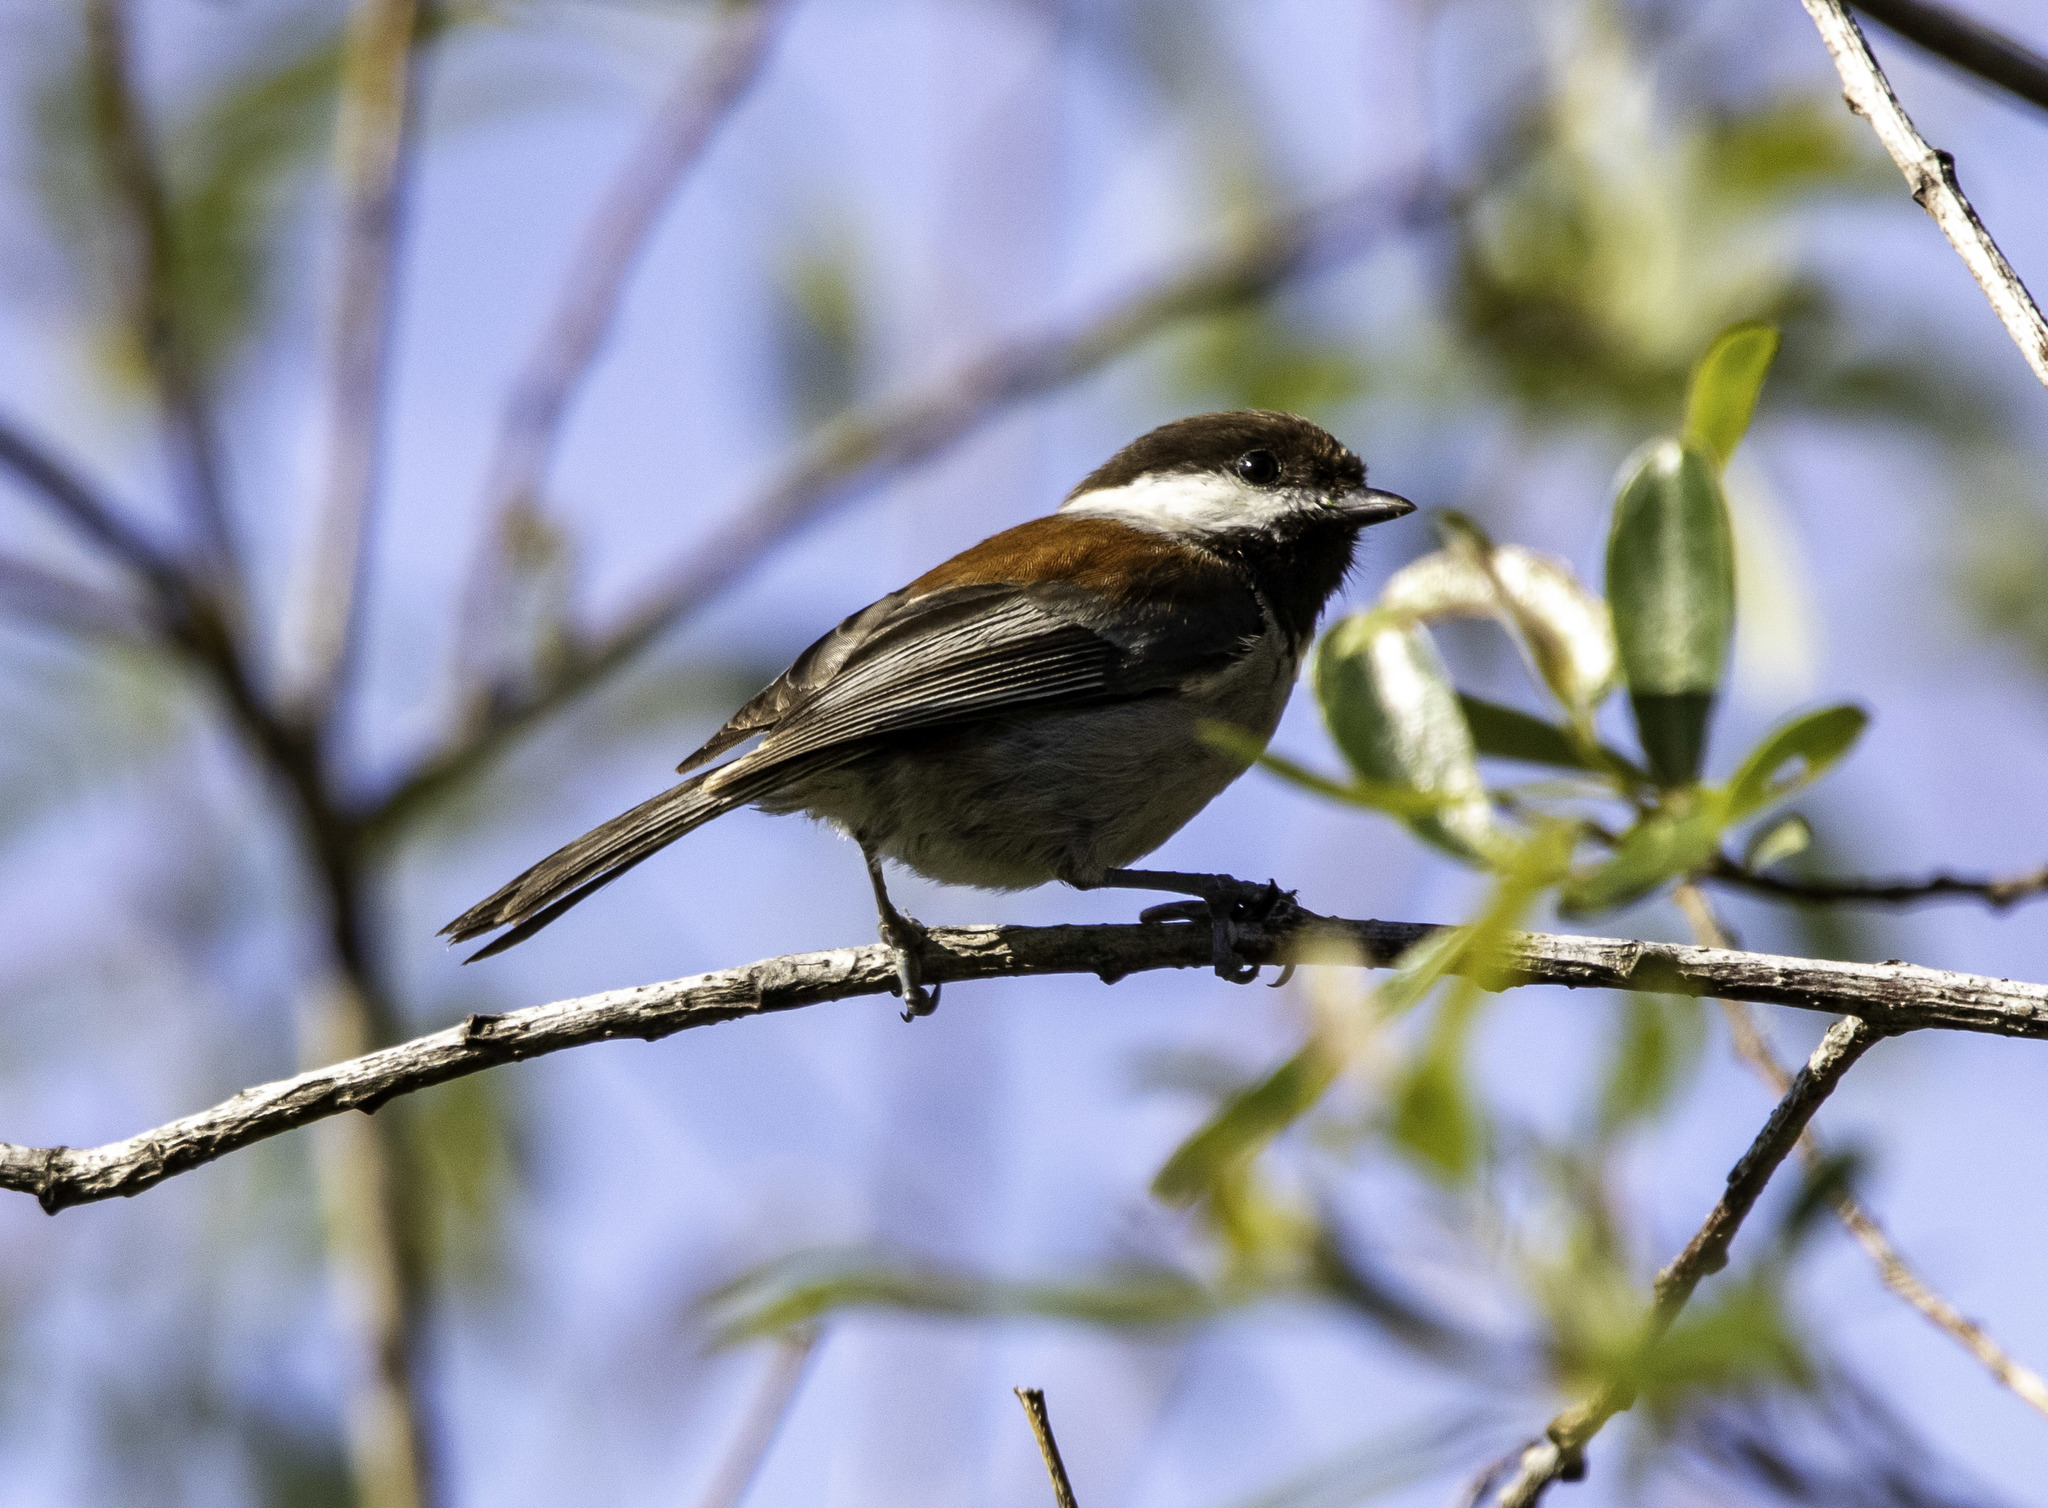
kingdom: Animalia
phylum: Chordata
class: Aves
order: Passeriformes
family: Paridae
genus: Poecile
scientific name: Poecile rufescens
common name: Chestnut-backed chickadee
